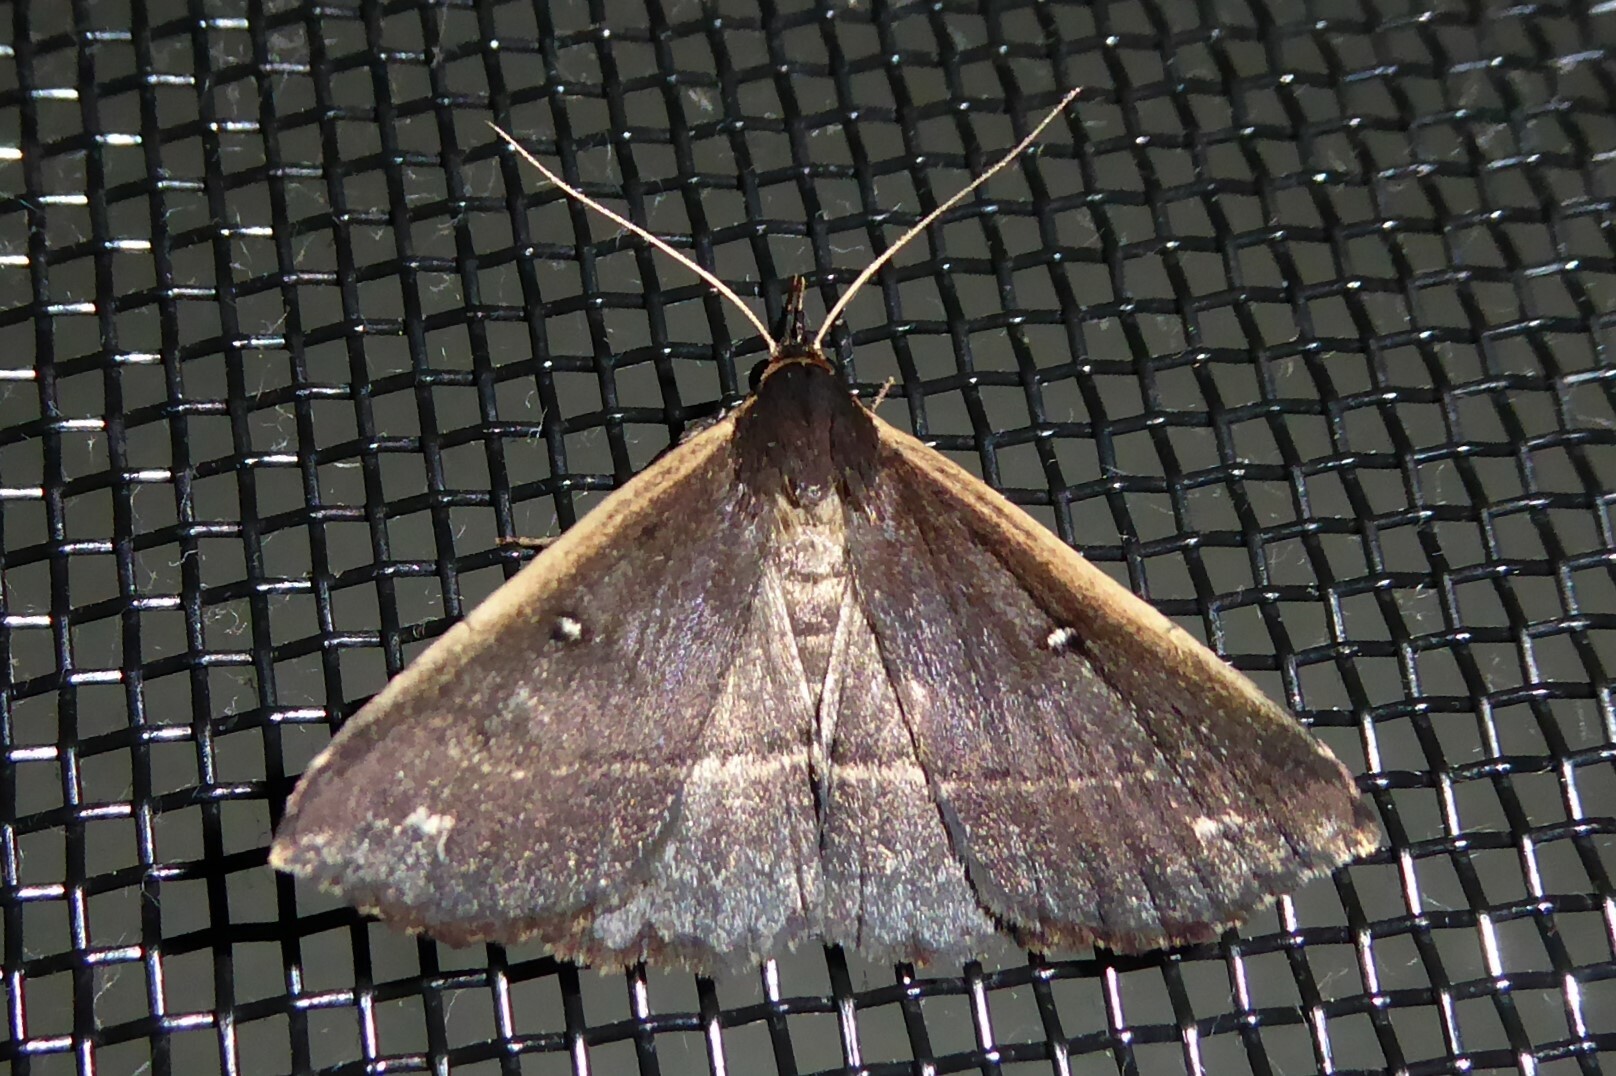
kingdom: Animalia
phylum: Arthropoda
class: Insecta
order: Lepidoptera
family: Erebidae
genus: Adrapsa
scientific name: Adrapsa ablualis
